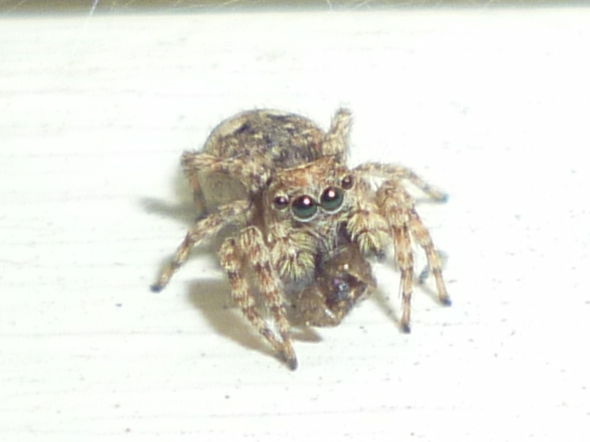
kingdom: Animalia
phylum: Arthropoda
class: Arachnida
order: Araneae
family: Salticidae
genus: Attulus
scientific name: Attulus fasciger
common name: Asiatic wall jumping spider
